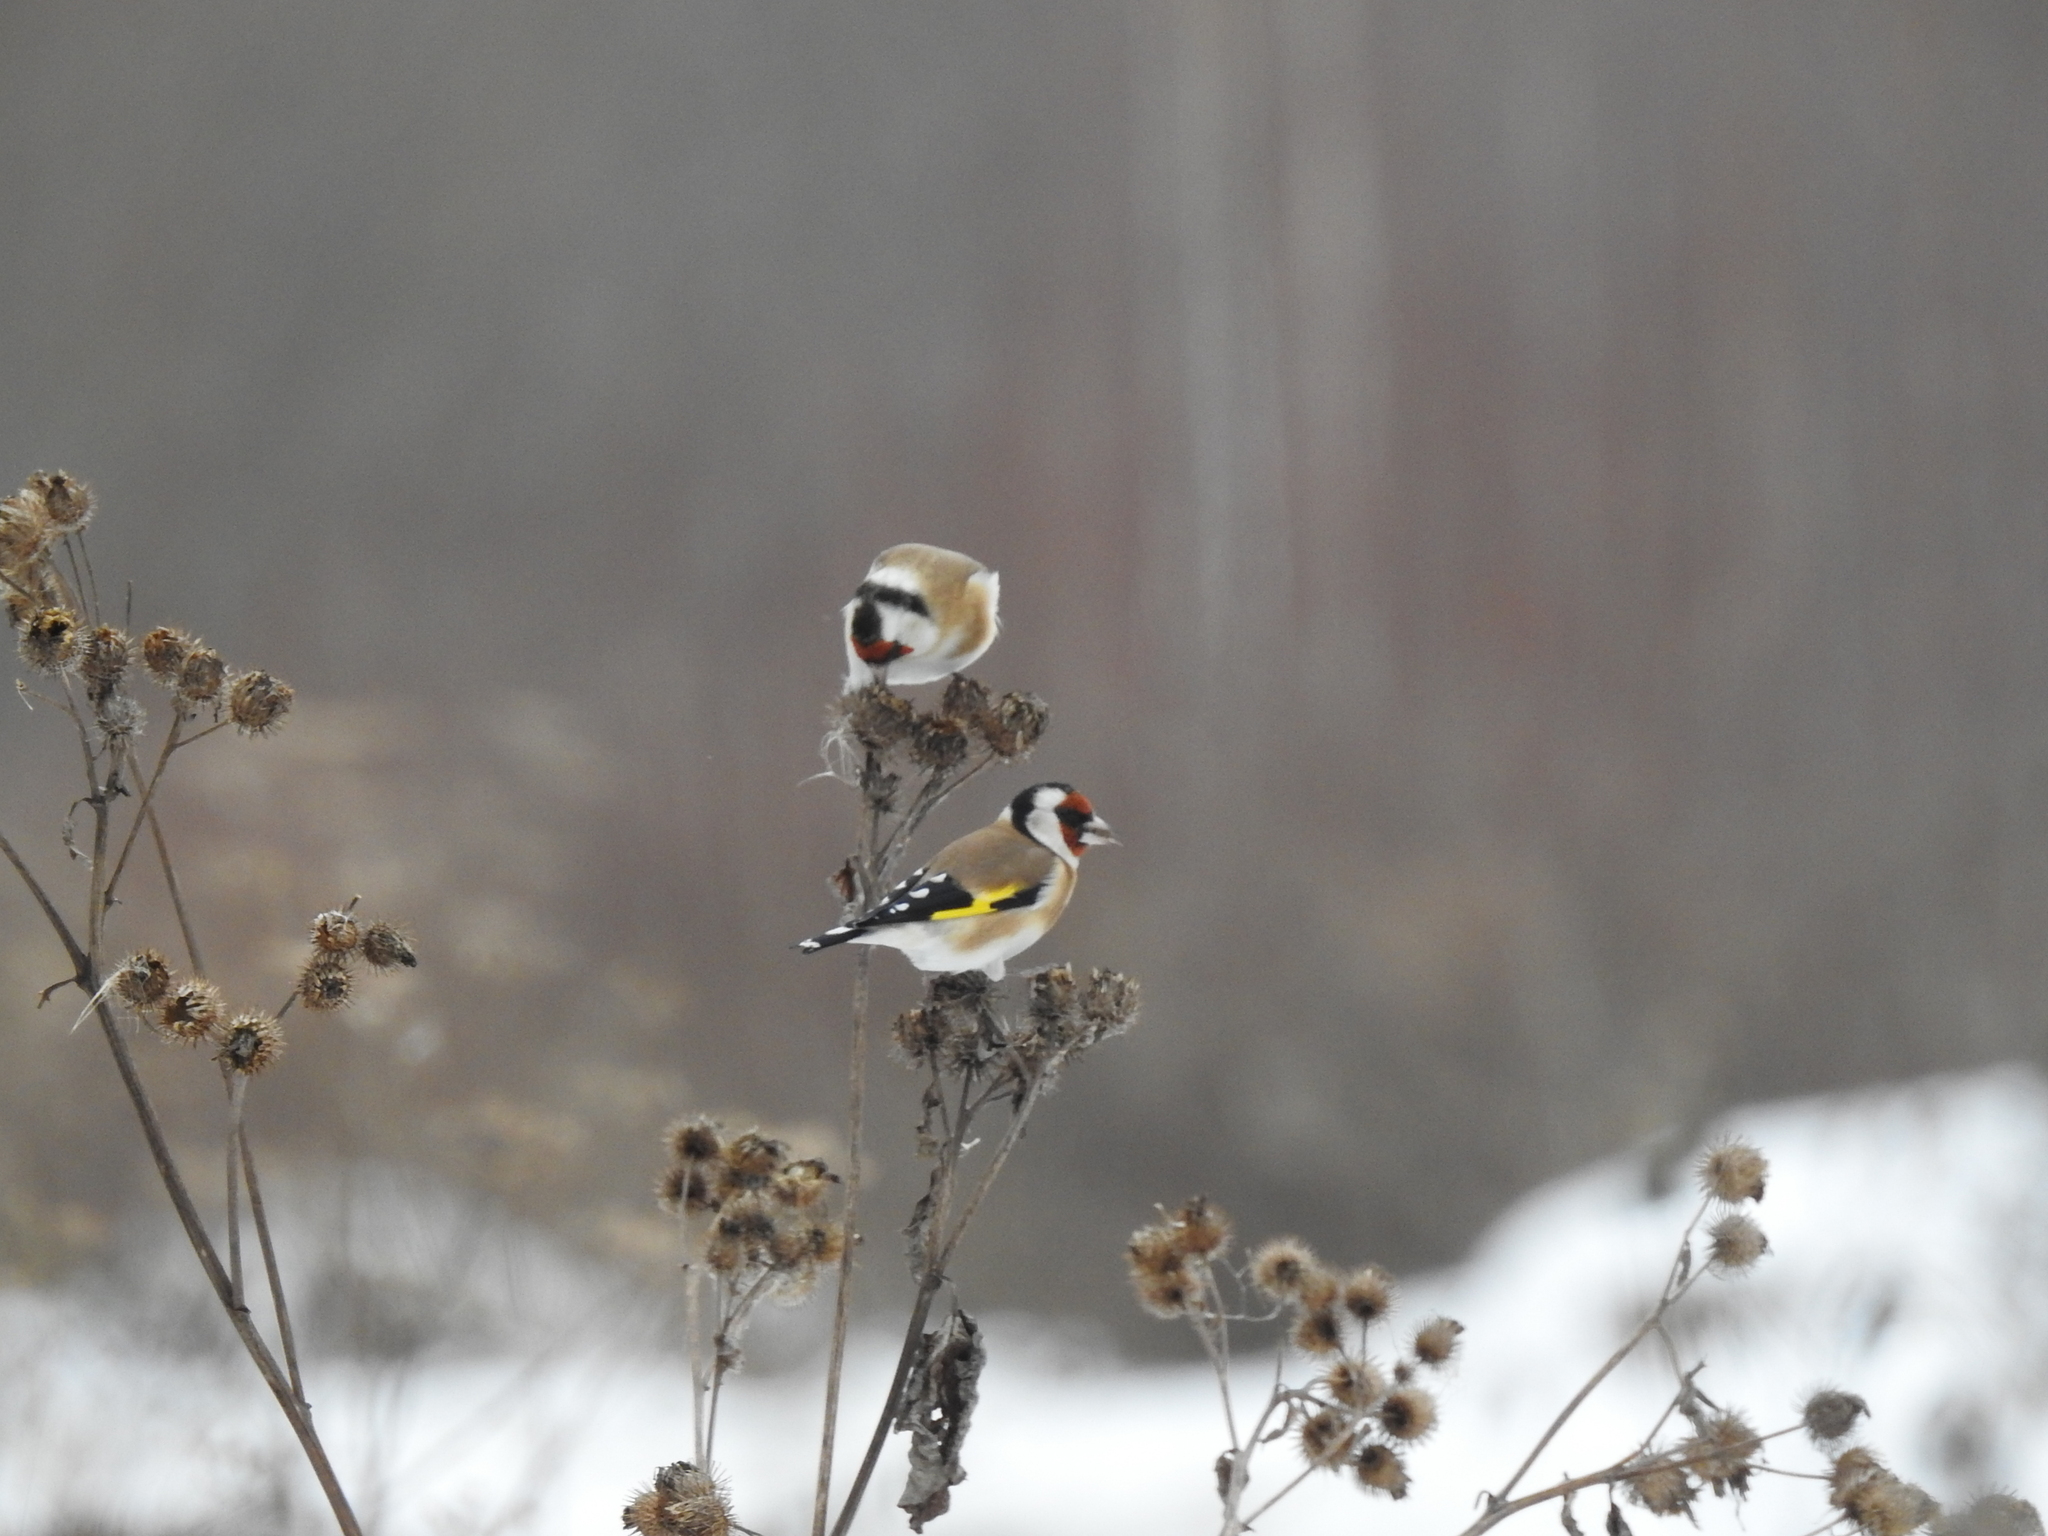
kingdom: Animalia
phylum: Chordata
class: Aves
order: Passeriformes
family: Fringillidae
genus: Carduelis
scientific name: Carduelis carduelis
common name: European goldfinch
